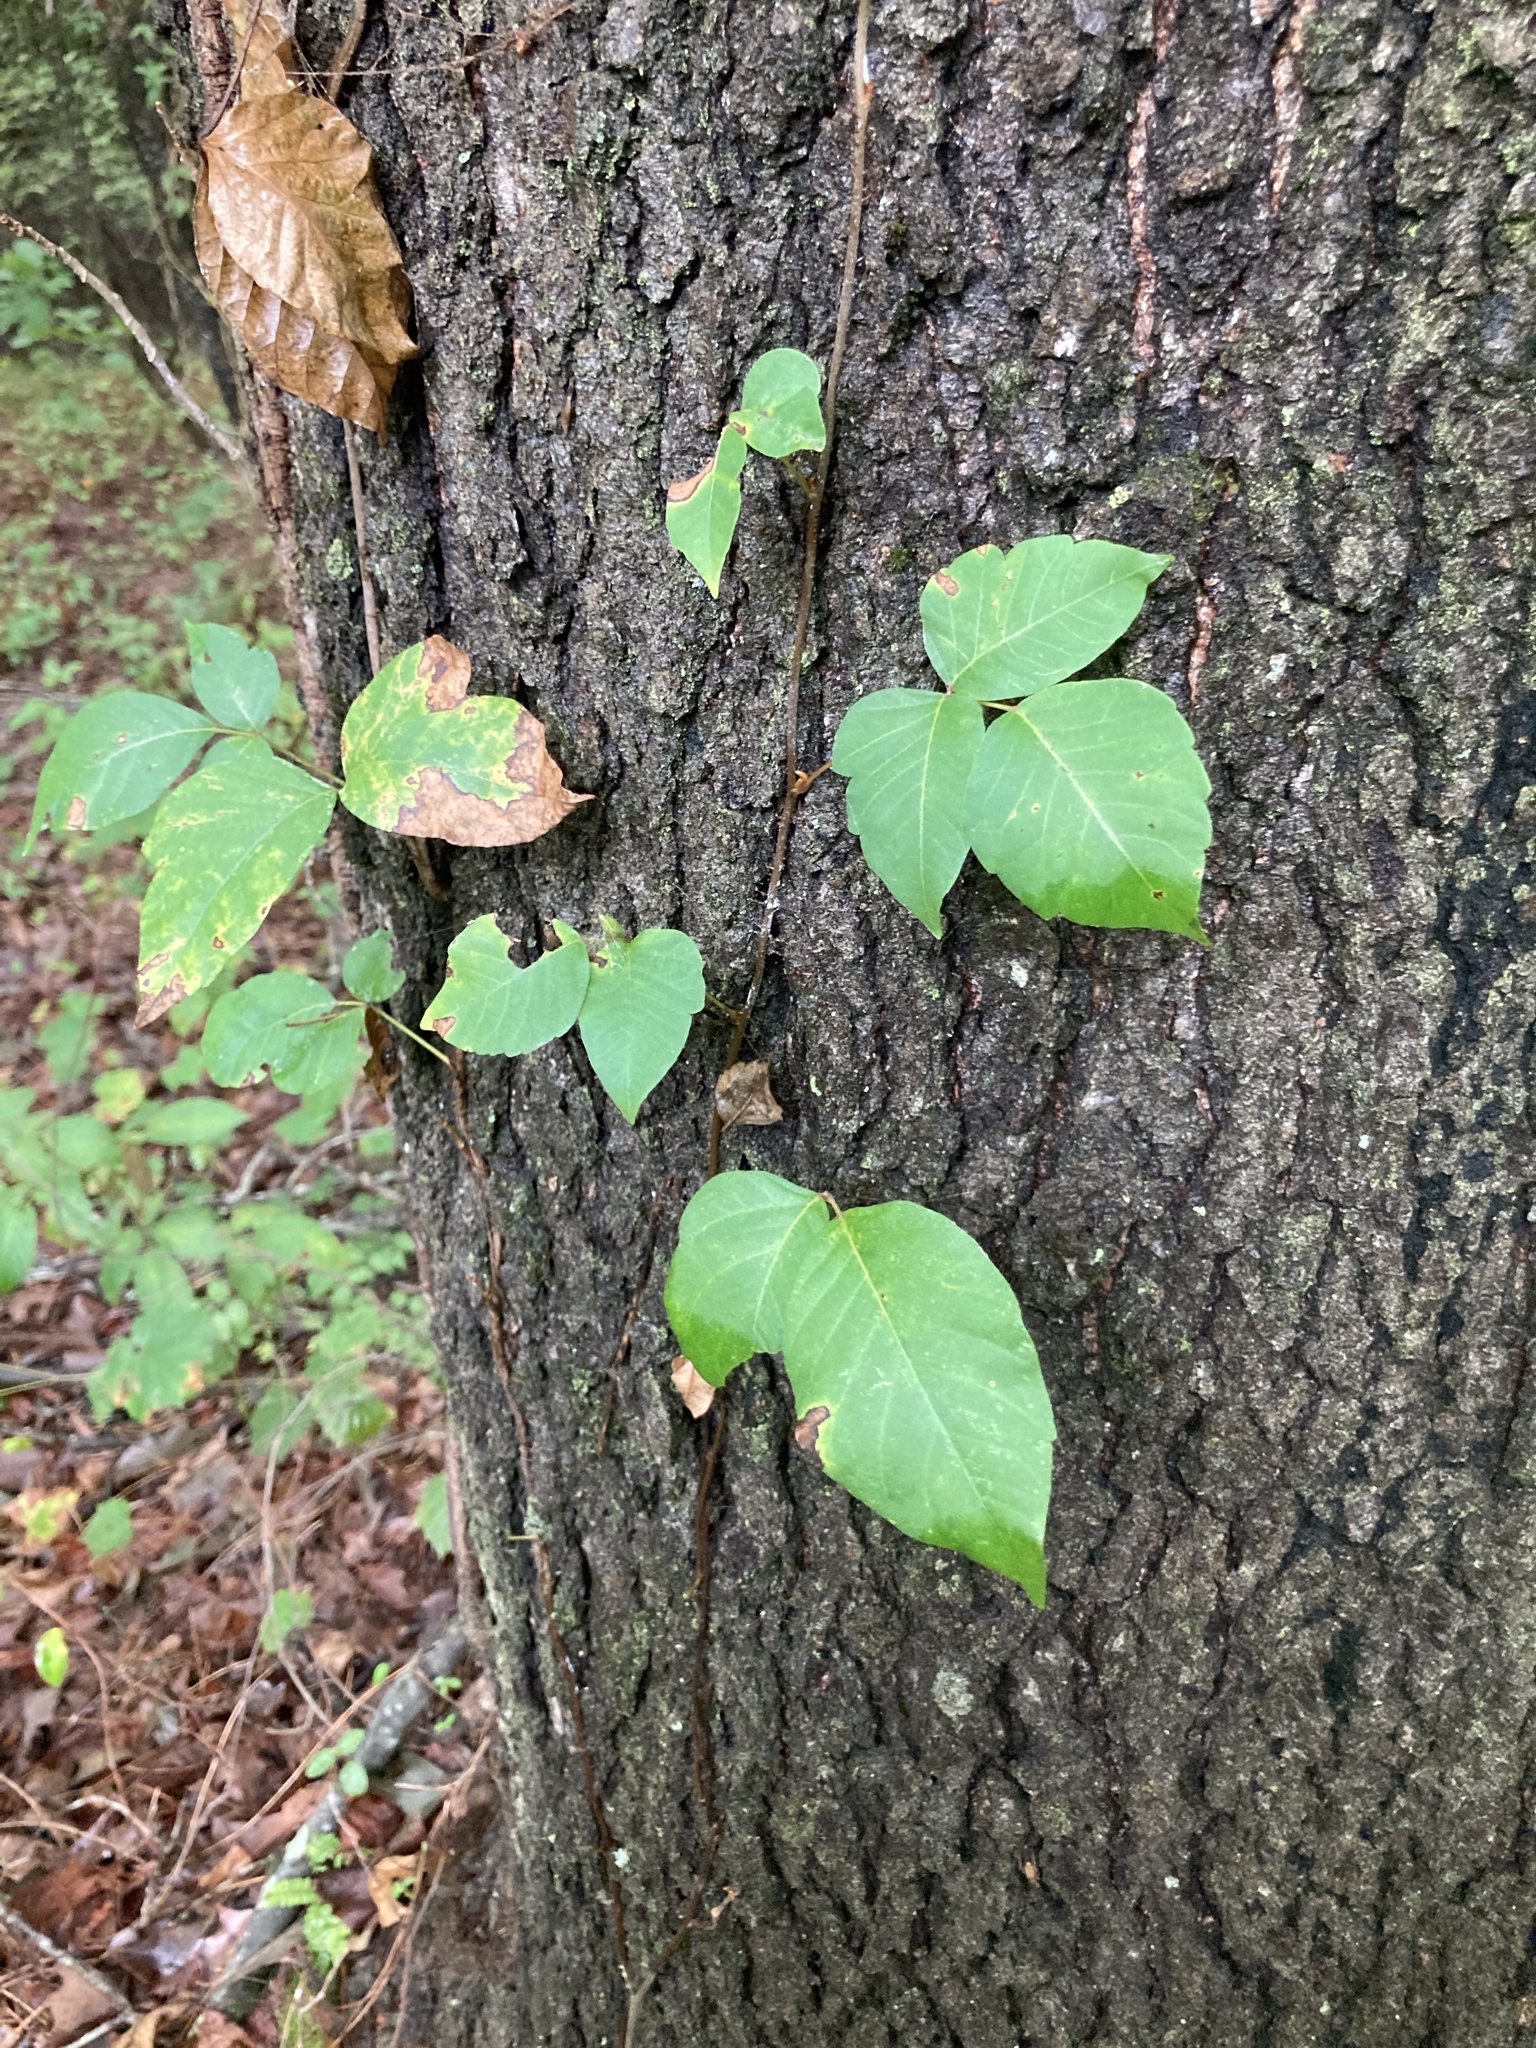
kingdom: Plantae
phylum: Tracheophyta
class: Magnoliopsida
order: Sapindales
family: Anacardiaceae
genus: Toxicodendron
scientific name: Toxicodendron radicans
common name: Poison ivy
